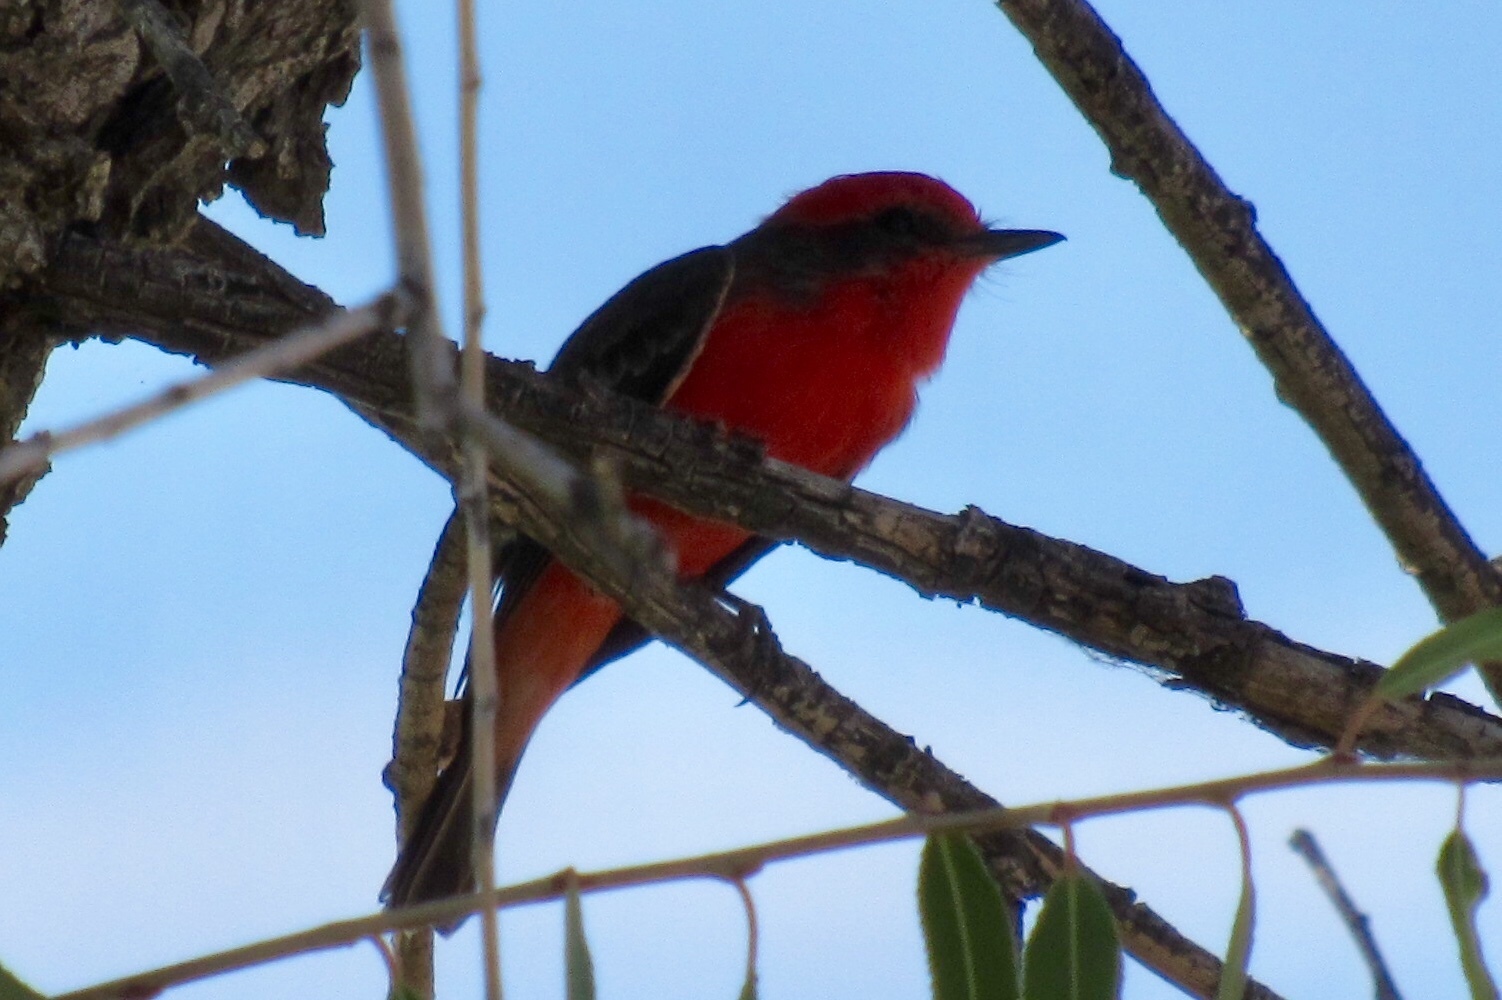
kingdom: Animalia
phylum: Chordata
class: Aves
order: Passeriformes
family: Tyrannidae
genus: Pyrocephalus
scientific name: Pyrocephalus rubinus
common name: Vermilion flycatcher
